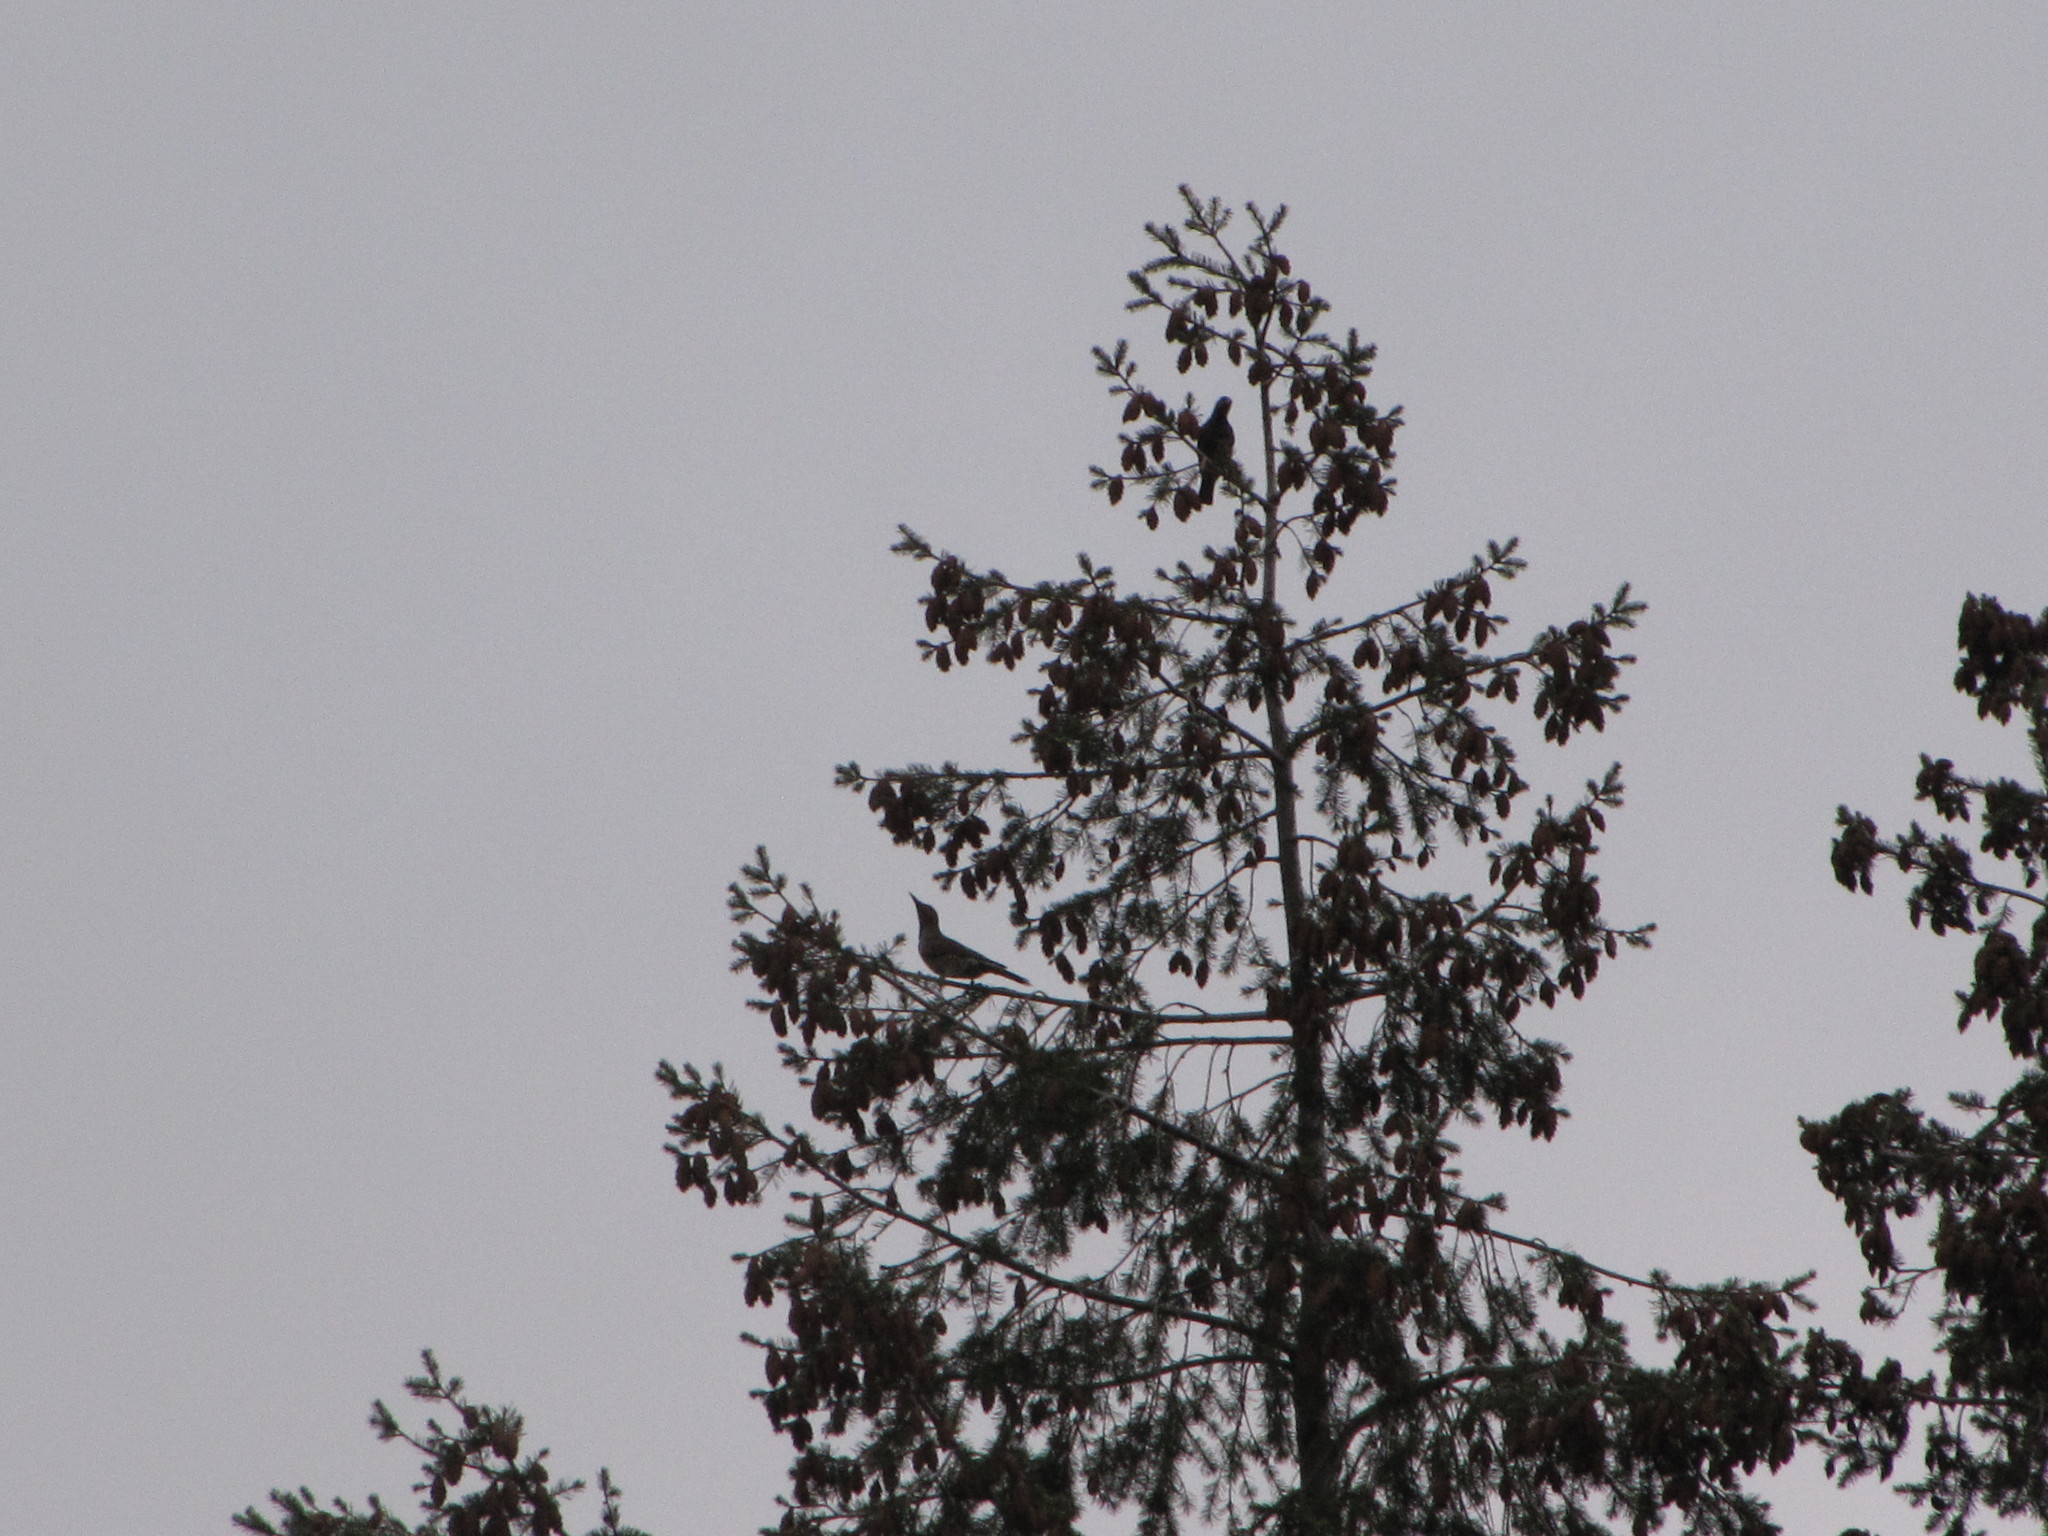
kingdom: Animalia
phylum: Chordata
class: Aves
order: Piciformes
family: Picidae
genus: Colaptes
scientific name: Colaptes auratus
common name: Northern flicker
